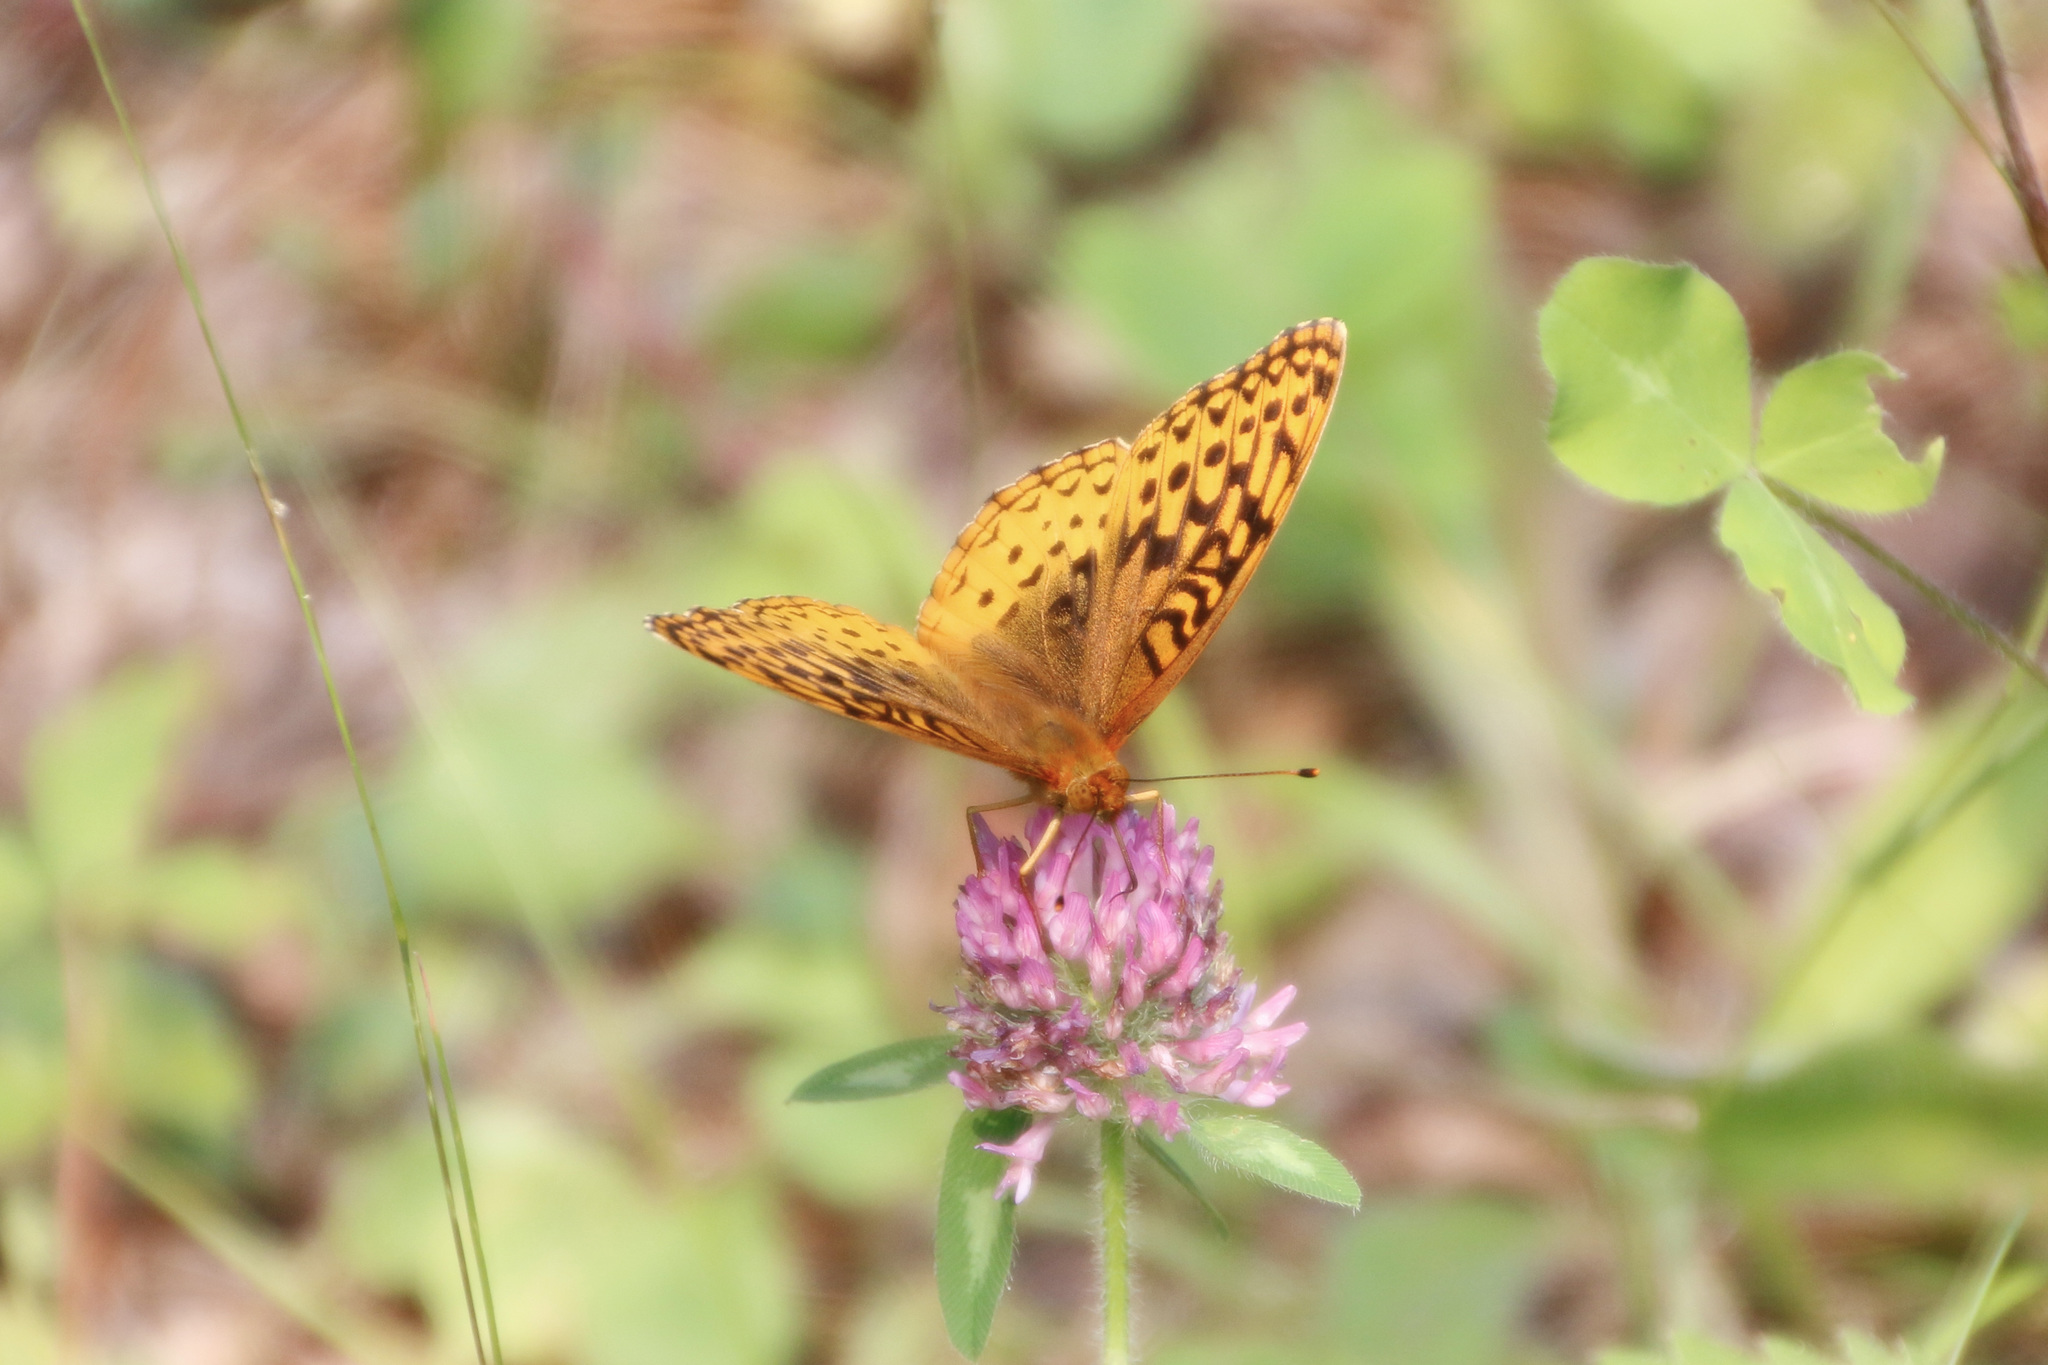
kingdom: Animalia
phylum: Arthropoda
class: Insecta
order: Lepidoptera
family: Nymphalidae
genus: Speyeria
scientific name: Speyeria cybele
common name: Great spangled fritillary
